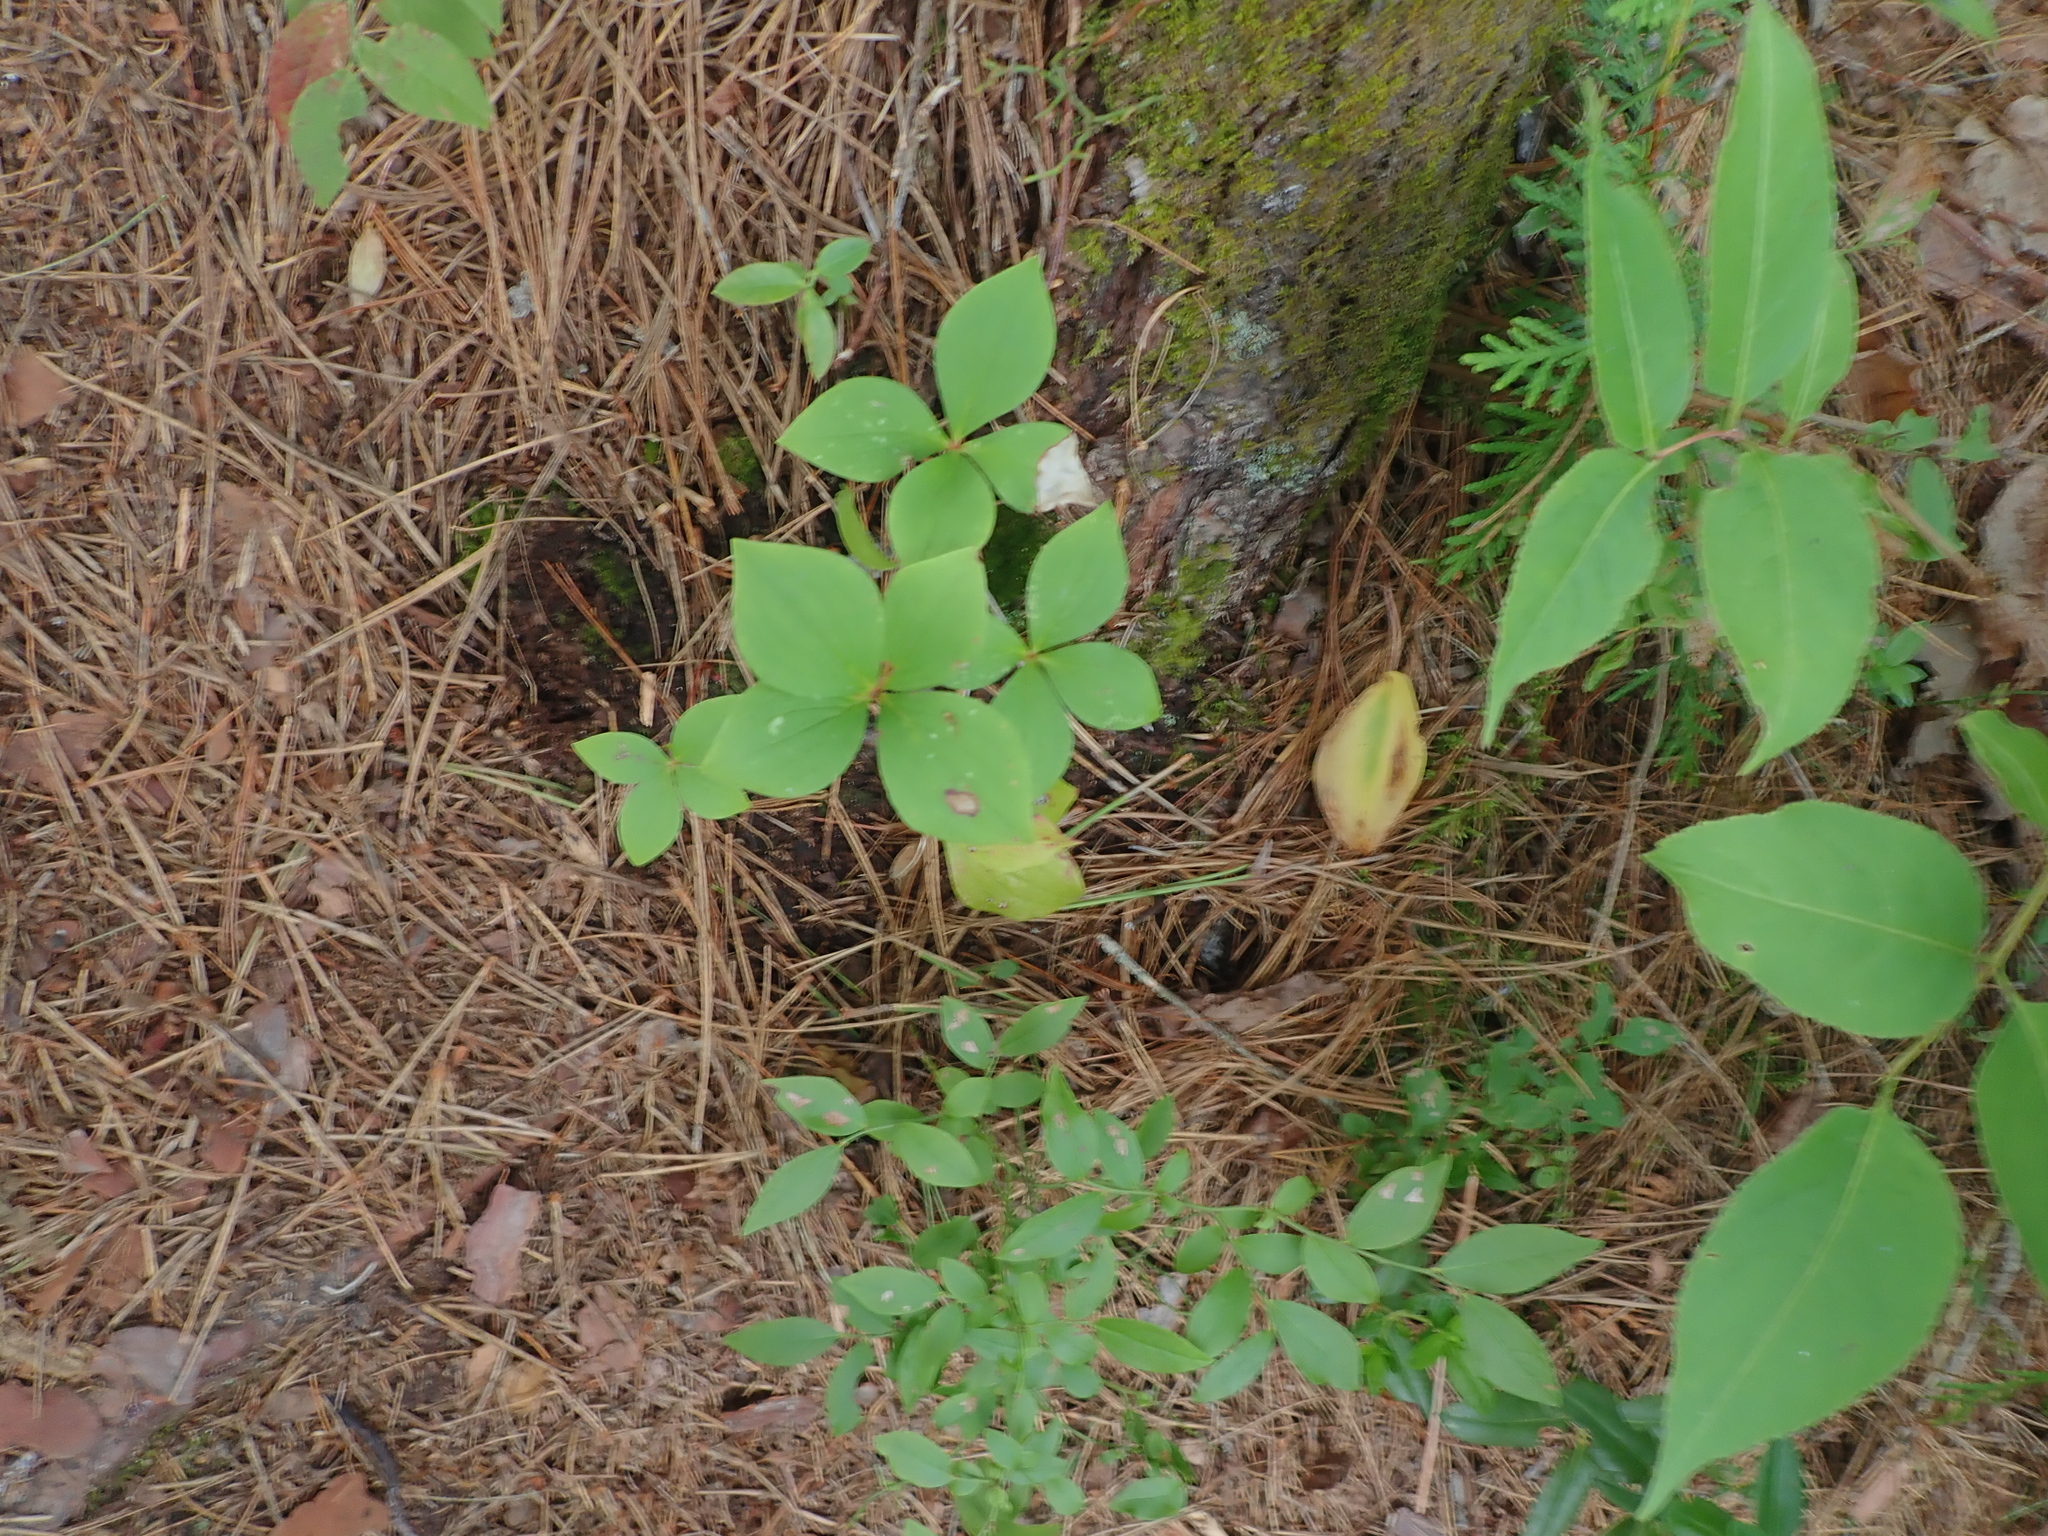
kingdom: Plantae
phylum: Tracheophyta
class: Magnoliopsida
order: Cornales
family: Cornaceae
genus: Cornus
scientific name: Cornus canadensis
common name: Creeping dogwood
